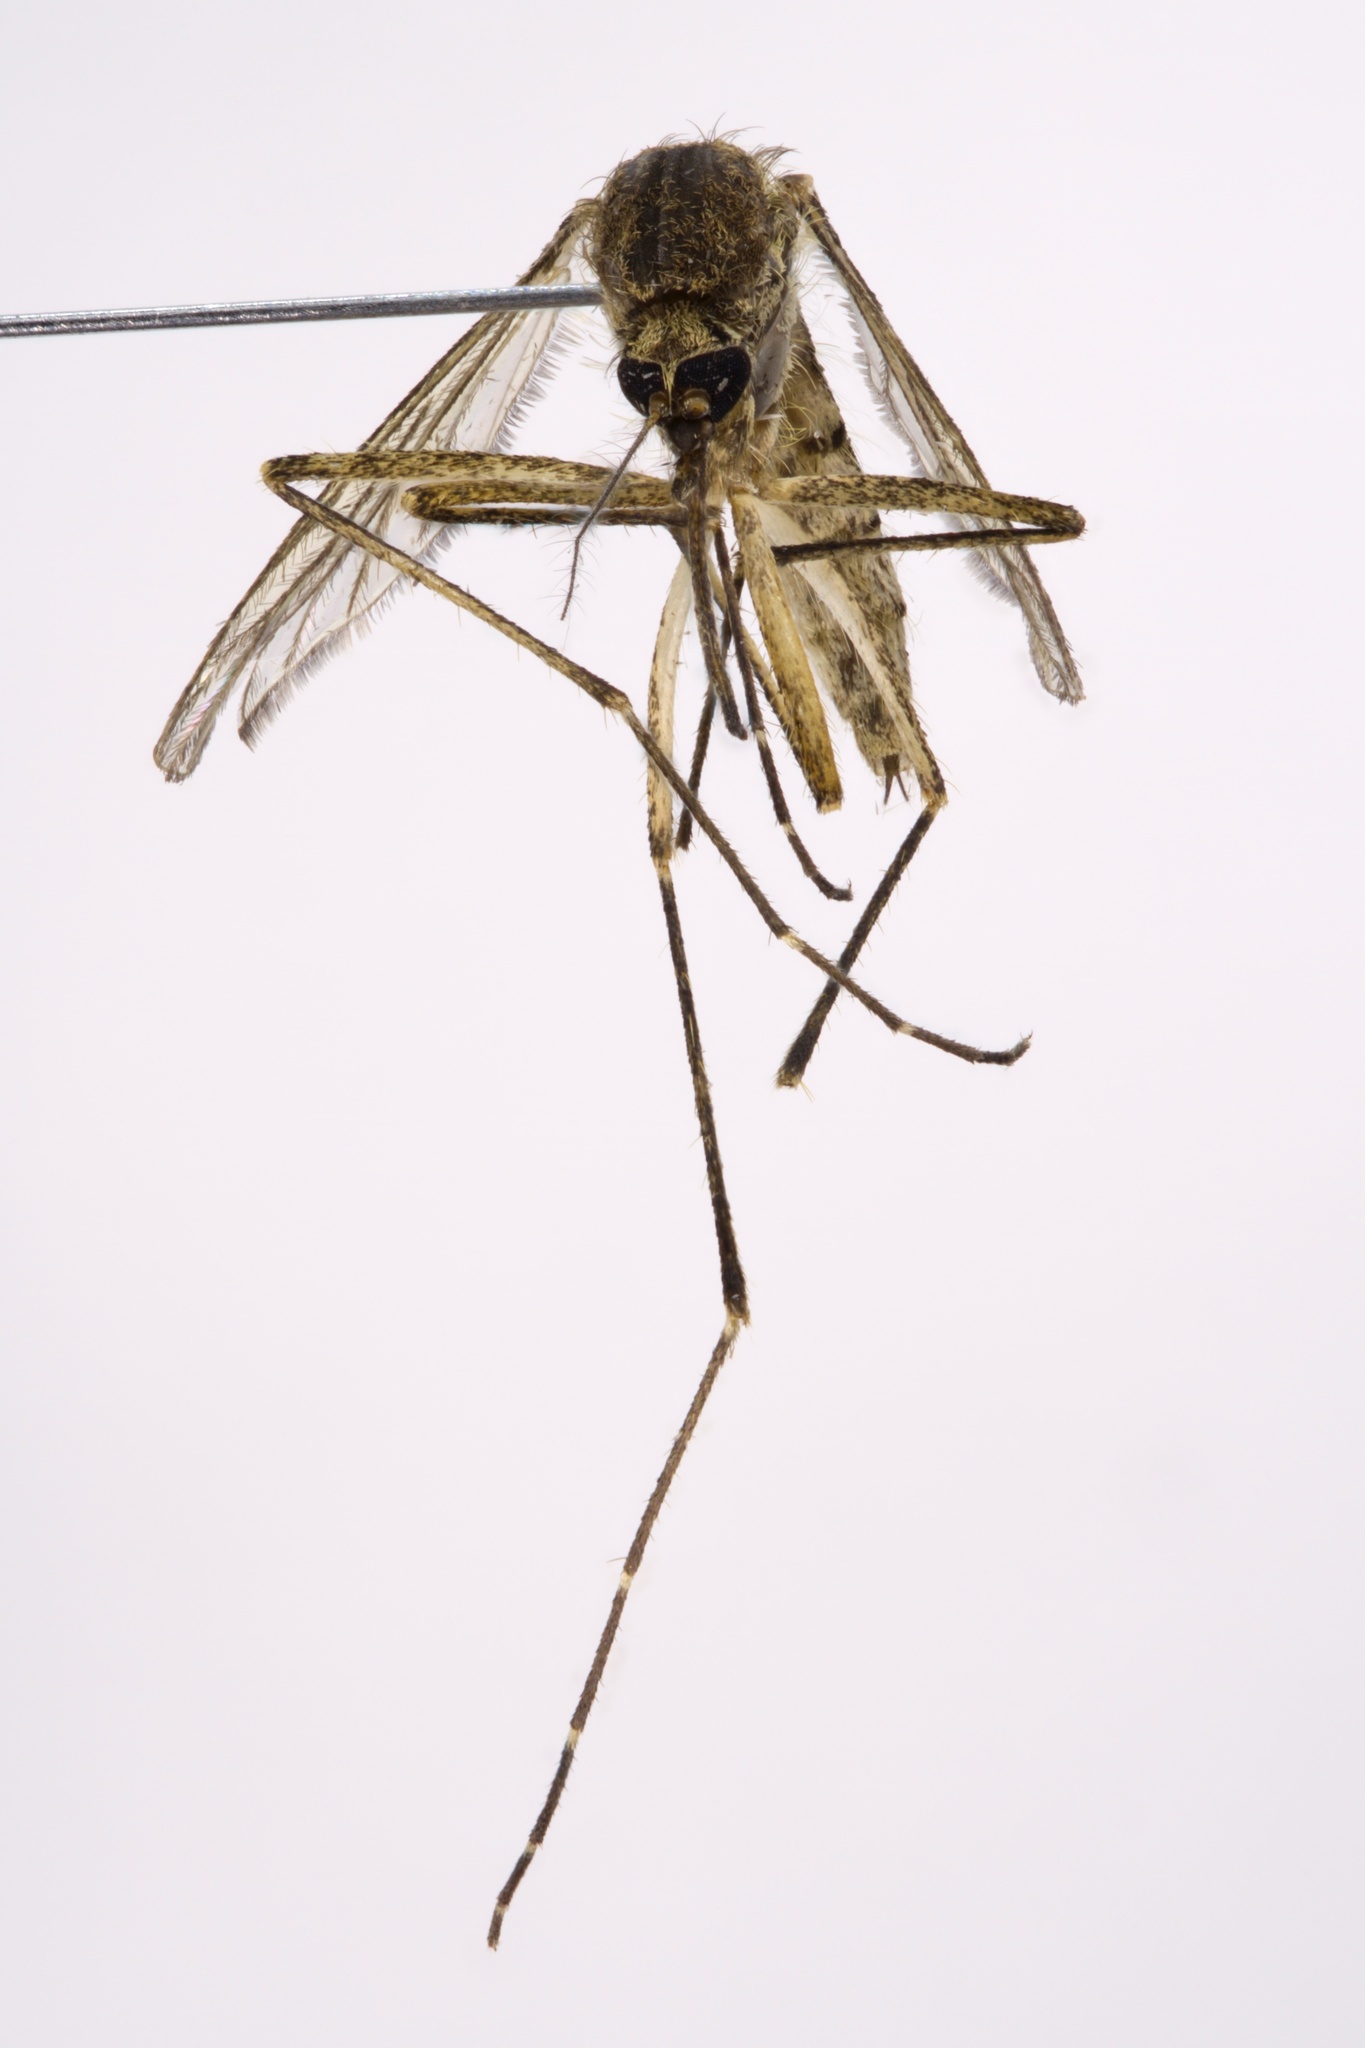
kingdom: Animalia
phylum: Arthropoda
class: Insecta
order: Diptera
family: Culicidae
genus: Aedes
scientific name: Aedes vexans
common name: Inland floodwater mosquito
